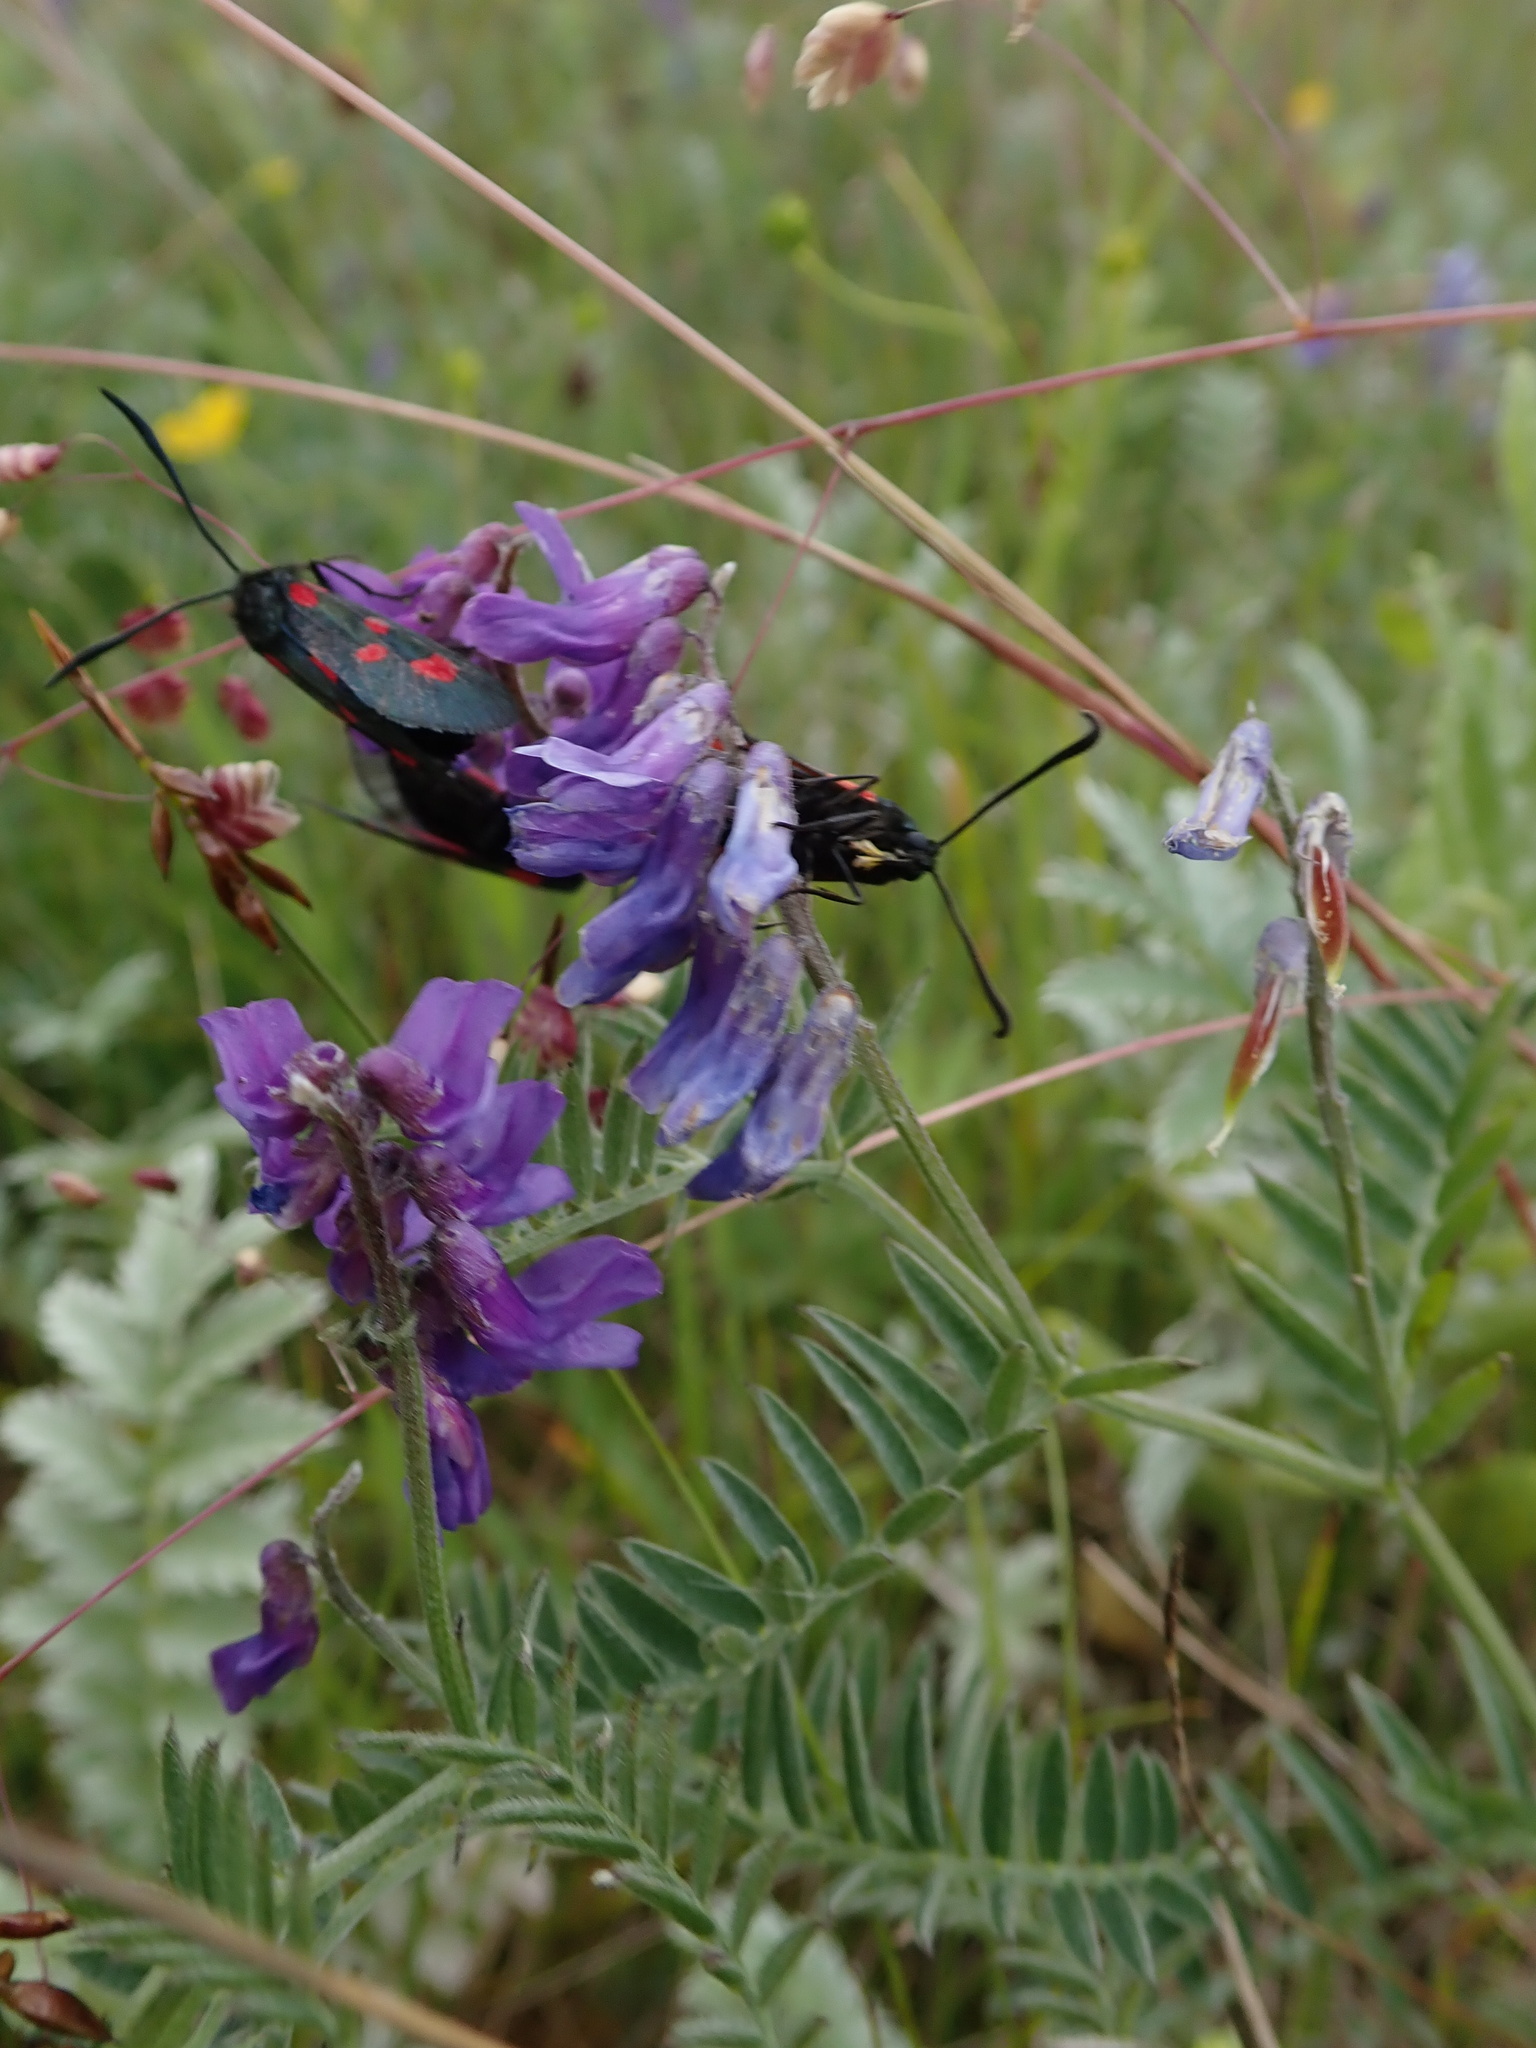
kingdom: Plantae
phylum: Tracheophyta
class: Magnoliopsida
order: Fabales
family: Fabaceae
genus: Vicia
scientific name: Vicia cracca
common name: Bird vetch
